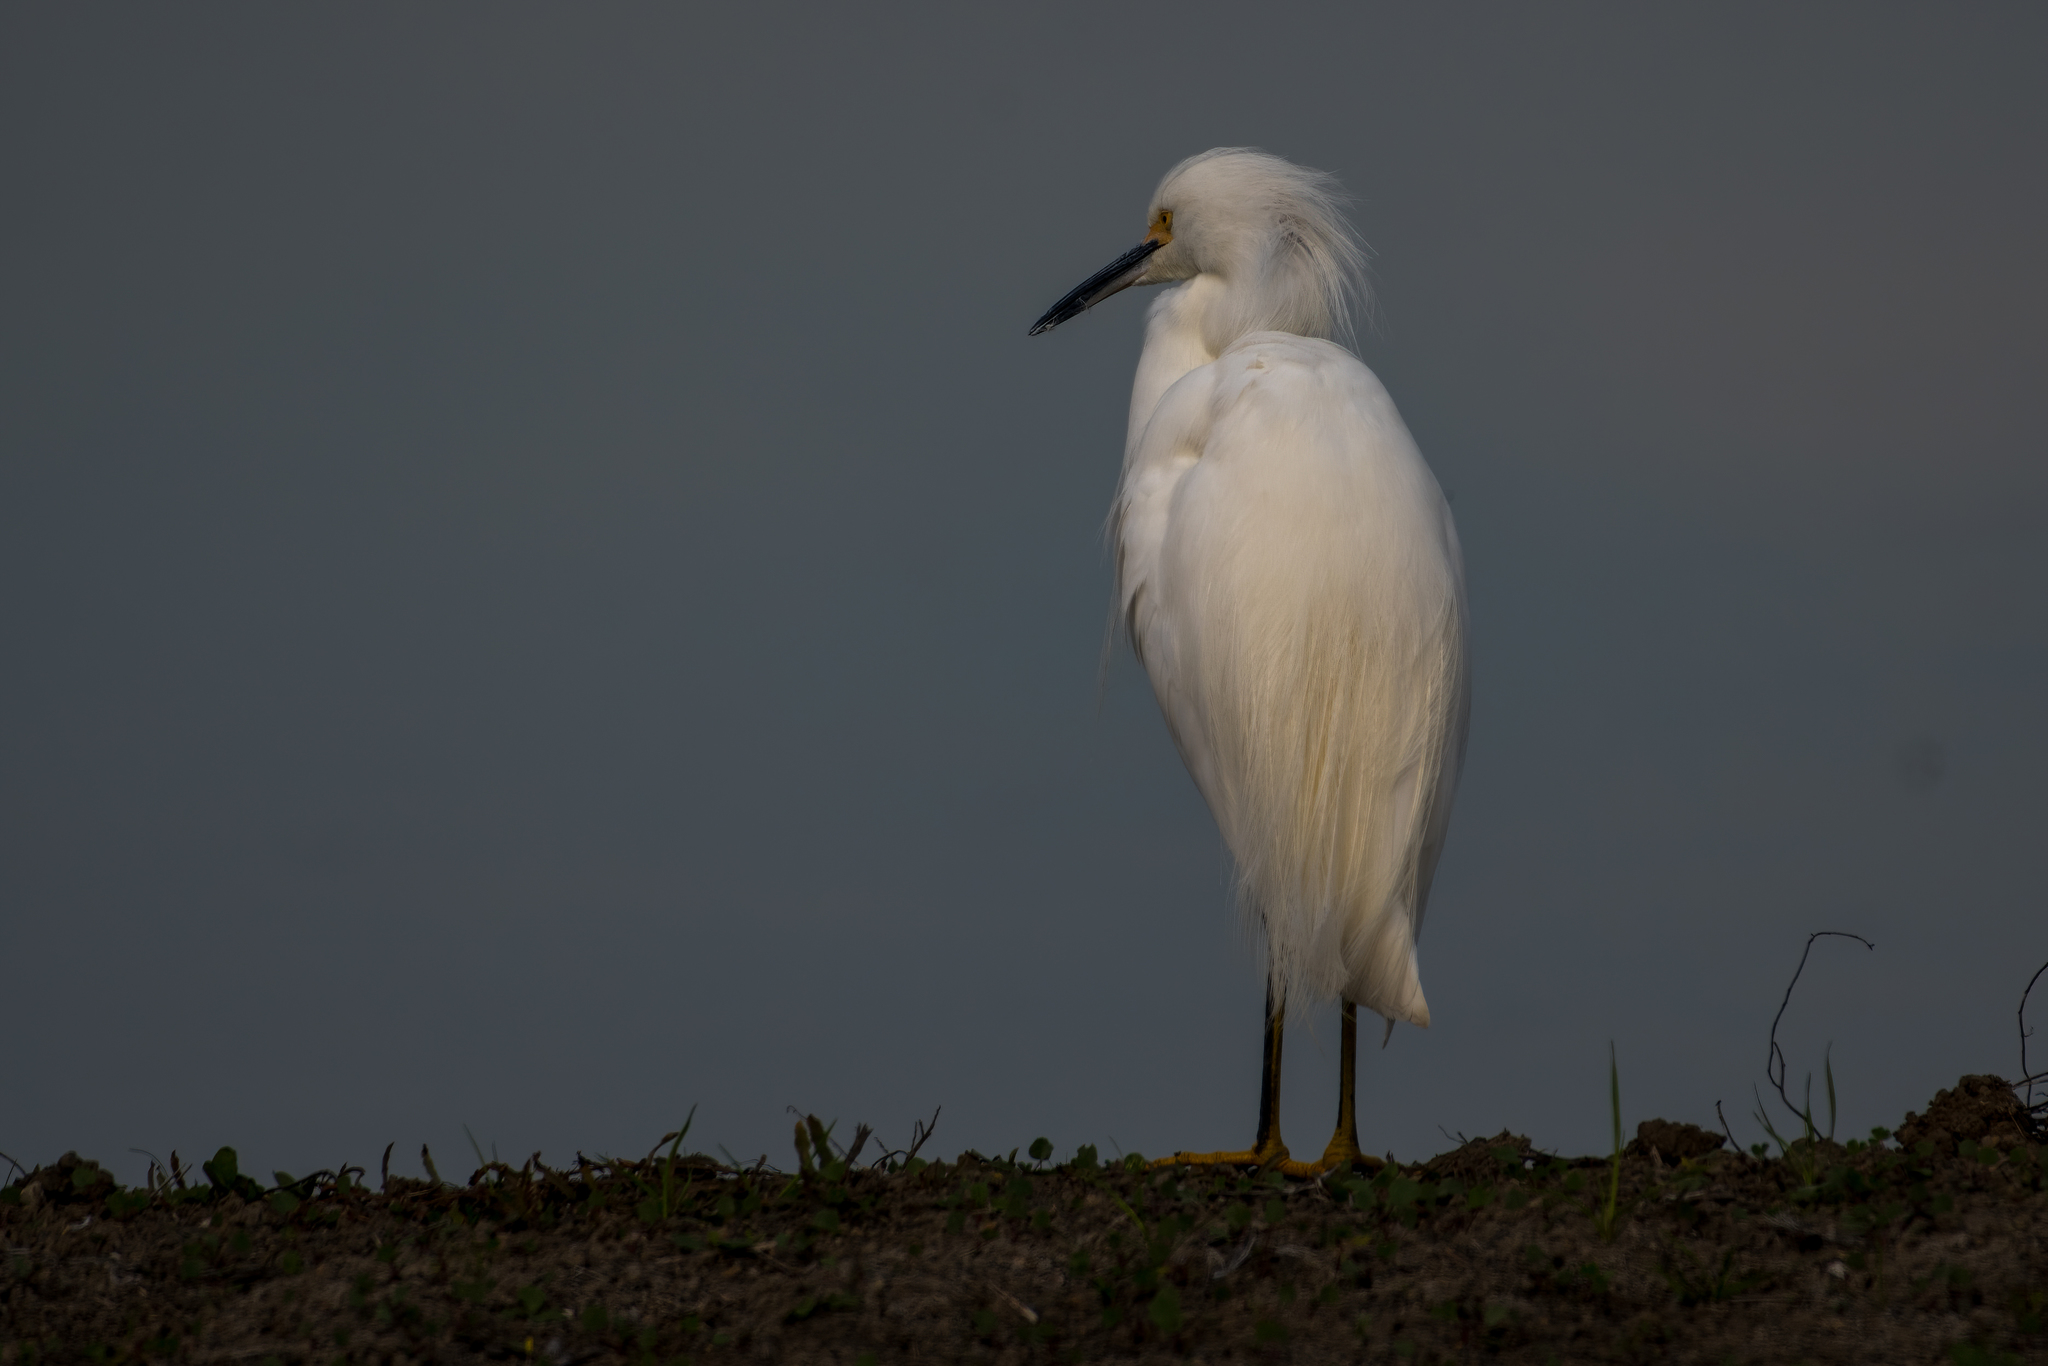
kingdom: Animalia
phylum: Chordata
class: Aves
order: Pelecaniformes
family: Ardeidae
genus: Egretta
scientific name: Egretta thula
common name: Snowy egret
